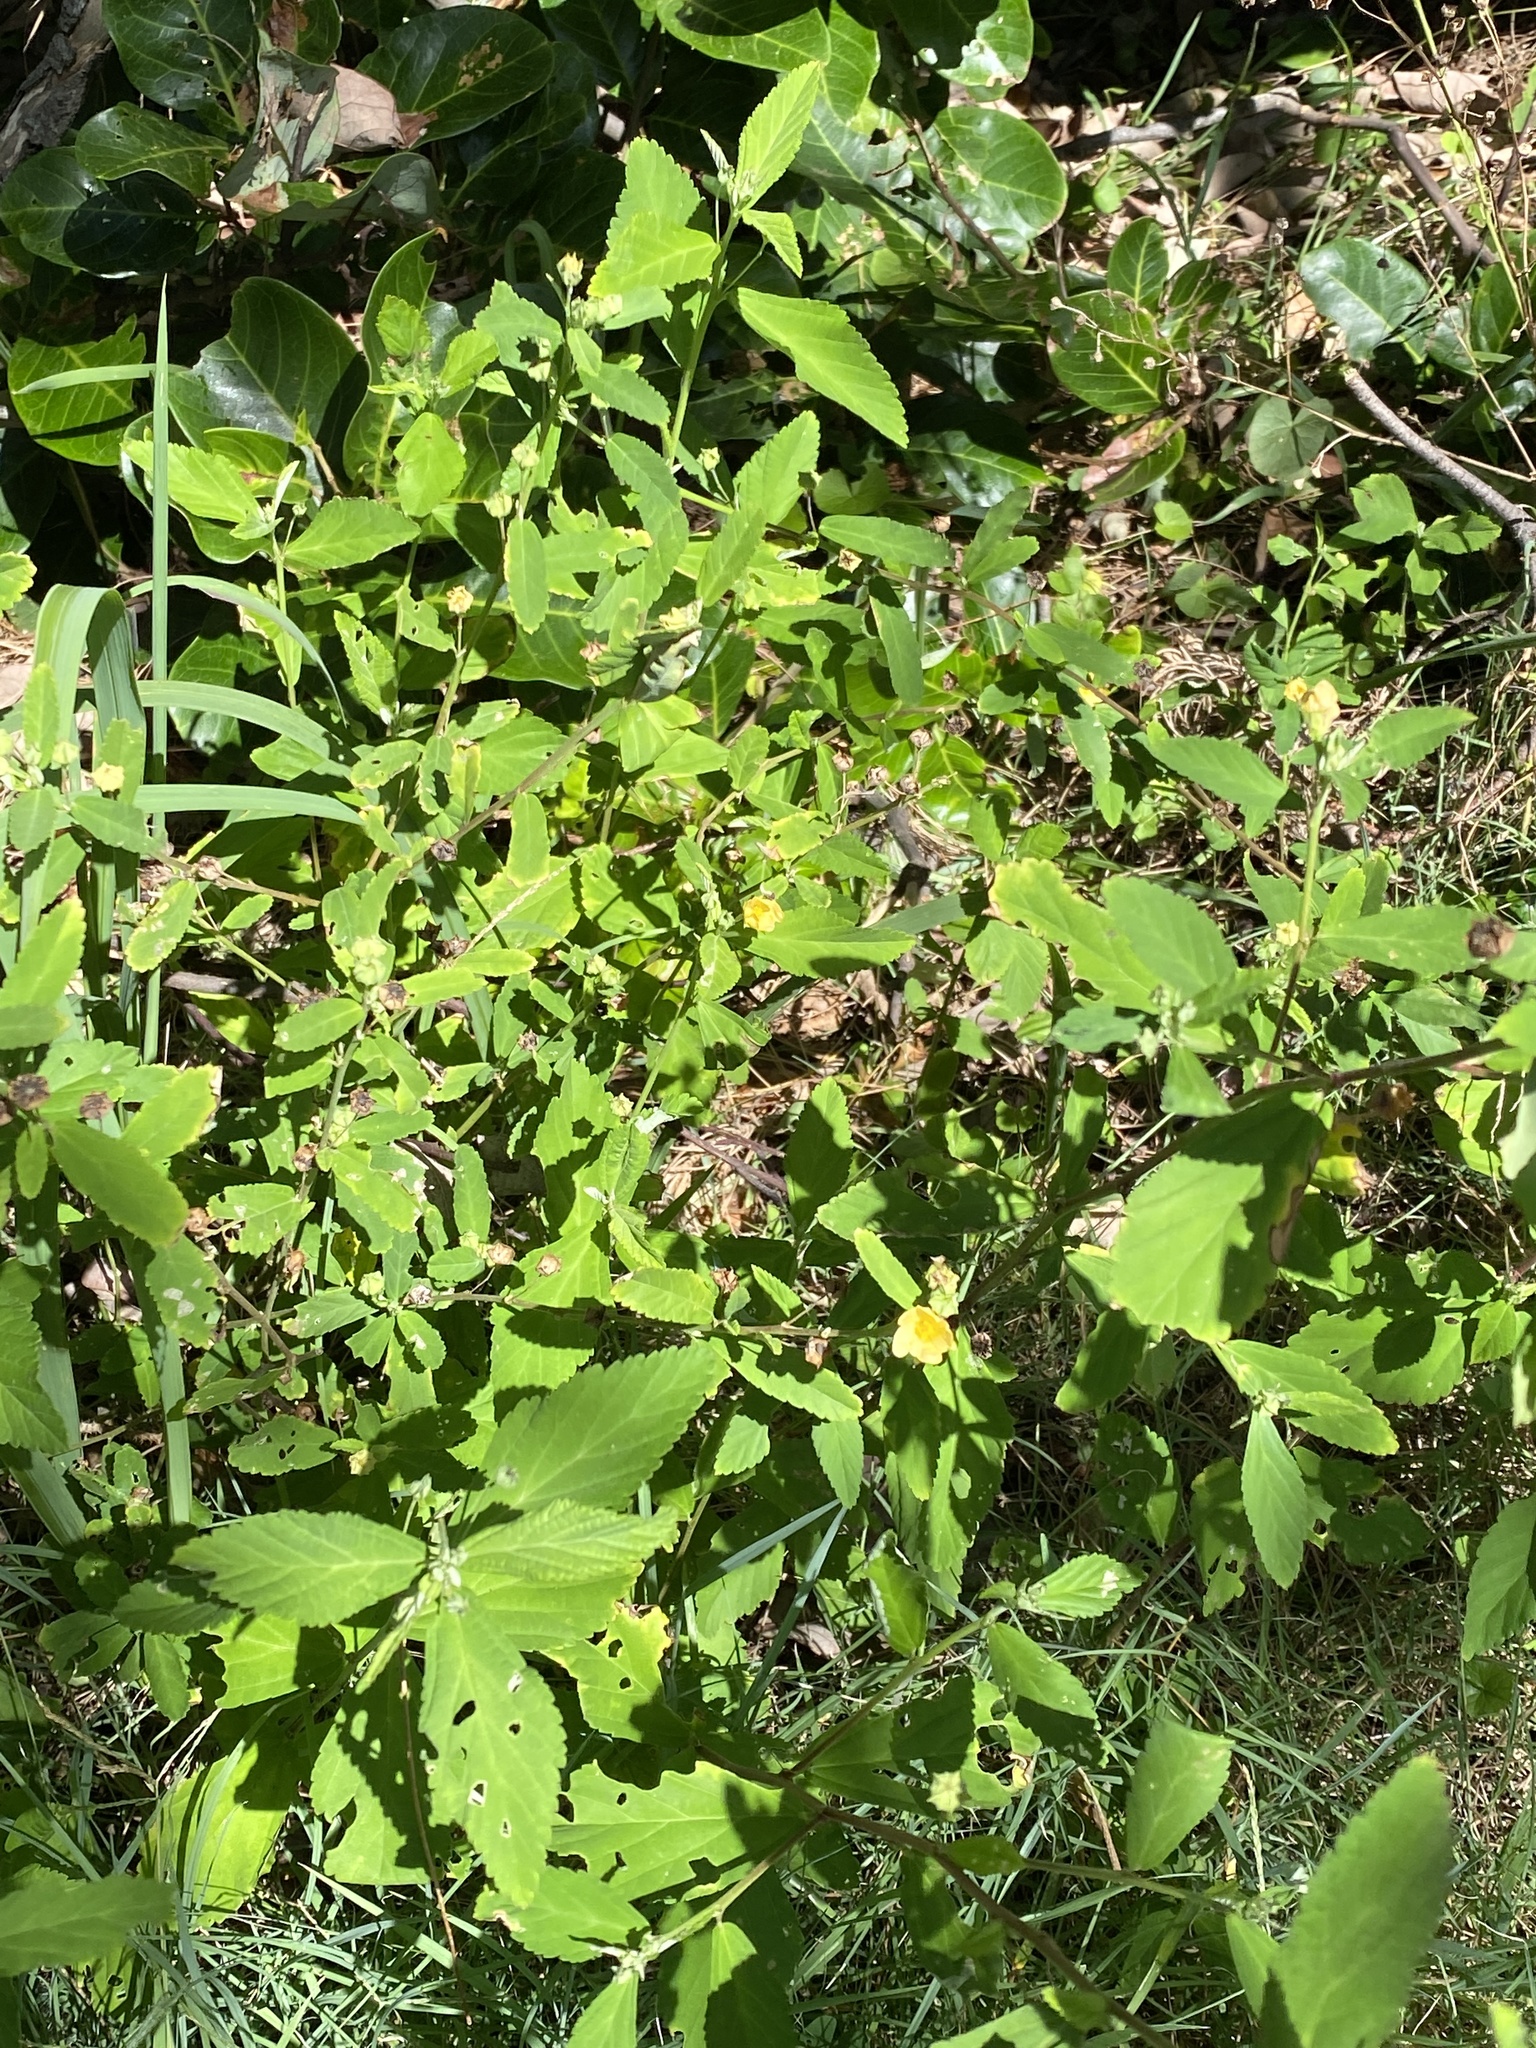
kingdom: Plantae
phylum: Tracheophyta
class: Magnoliopsida
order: Malvales
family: Malvaceae
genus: Sida
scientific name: Sida rhombifolia
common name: Queensland-hemp
